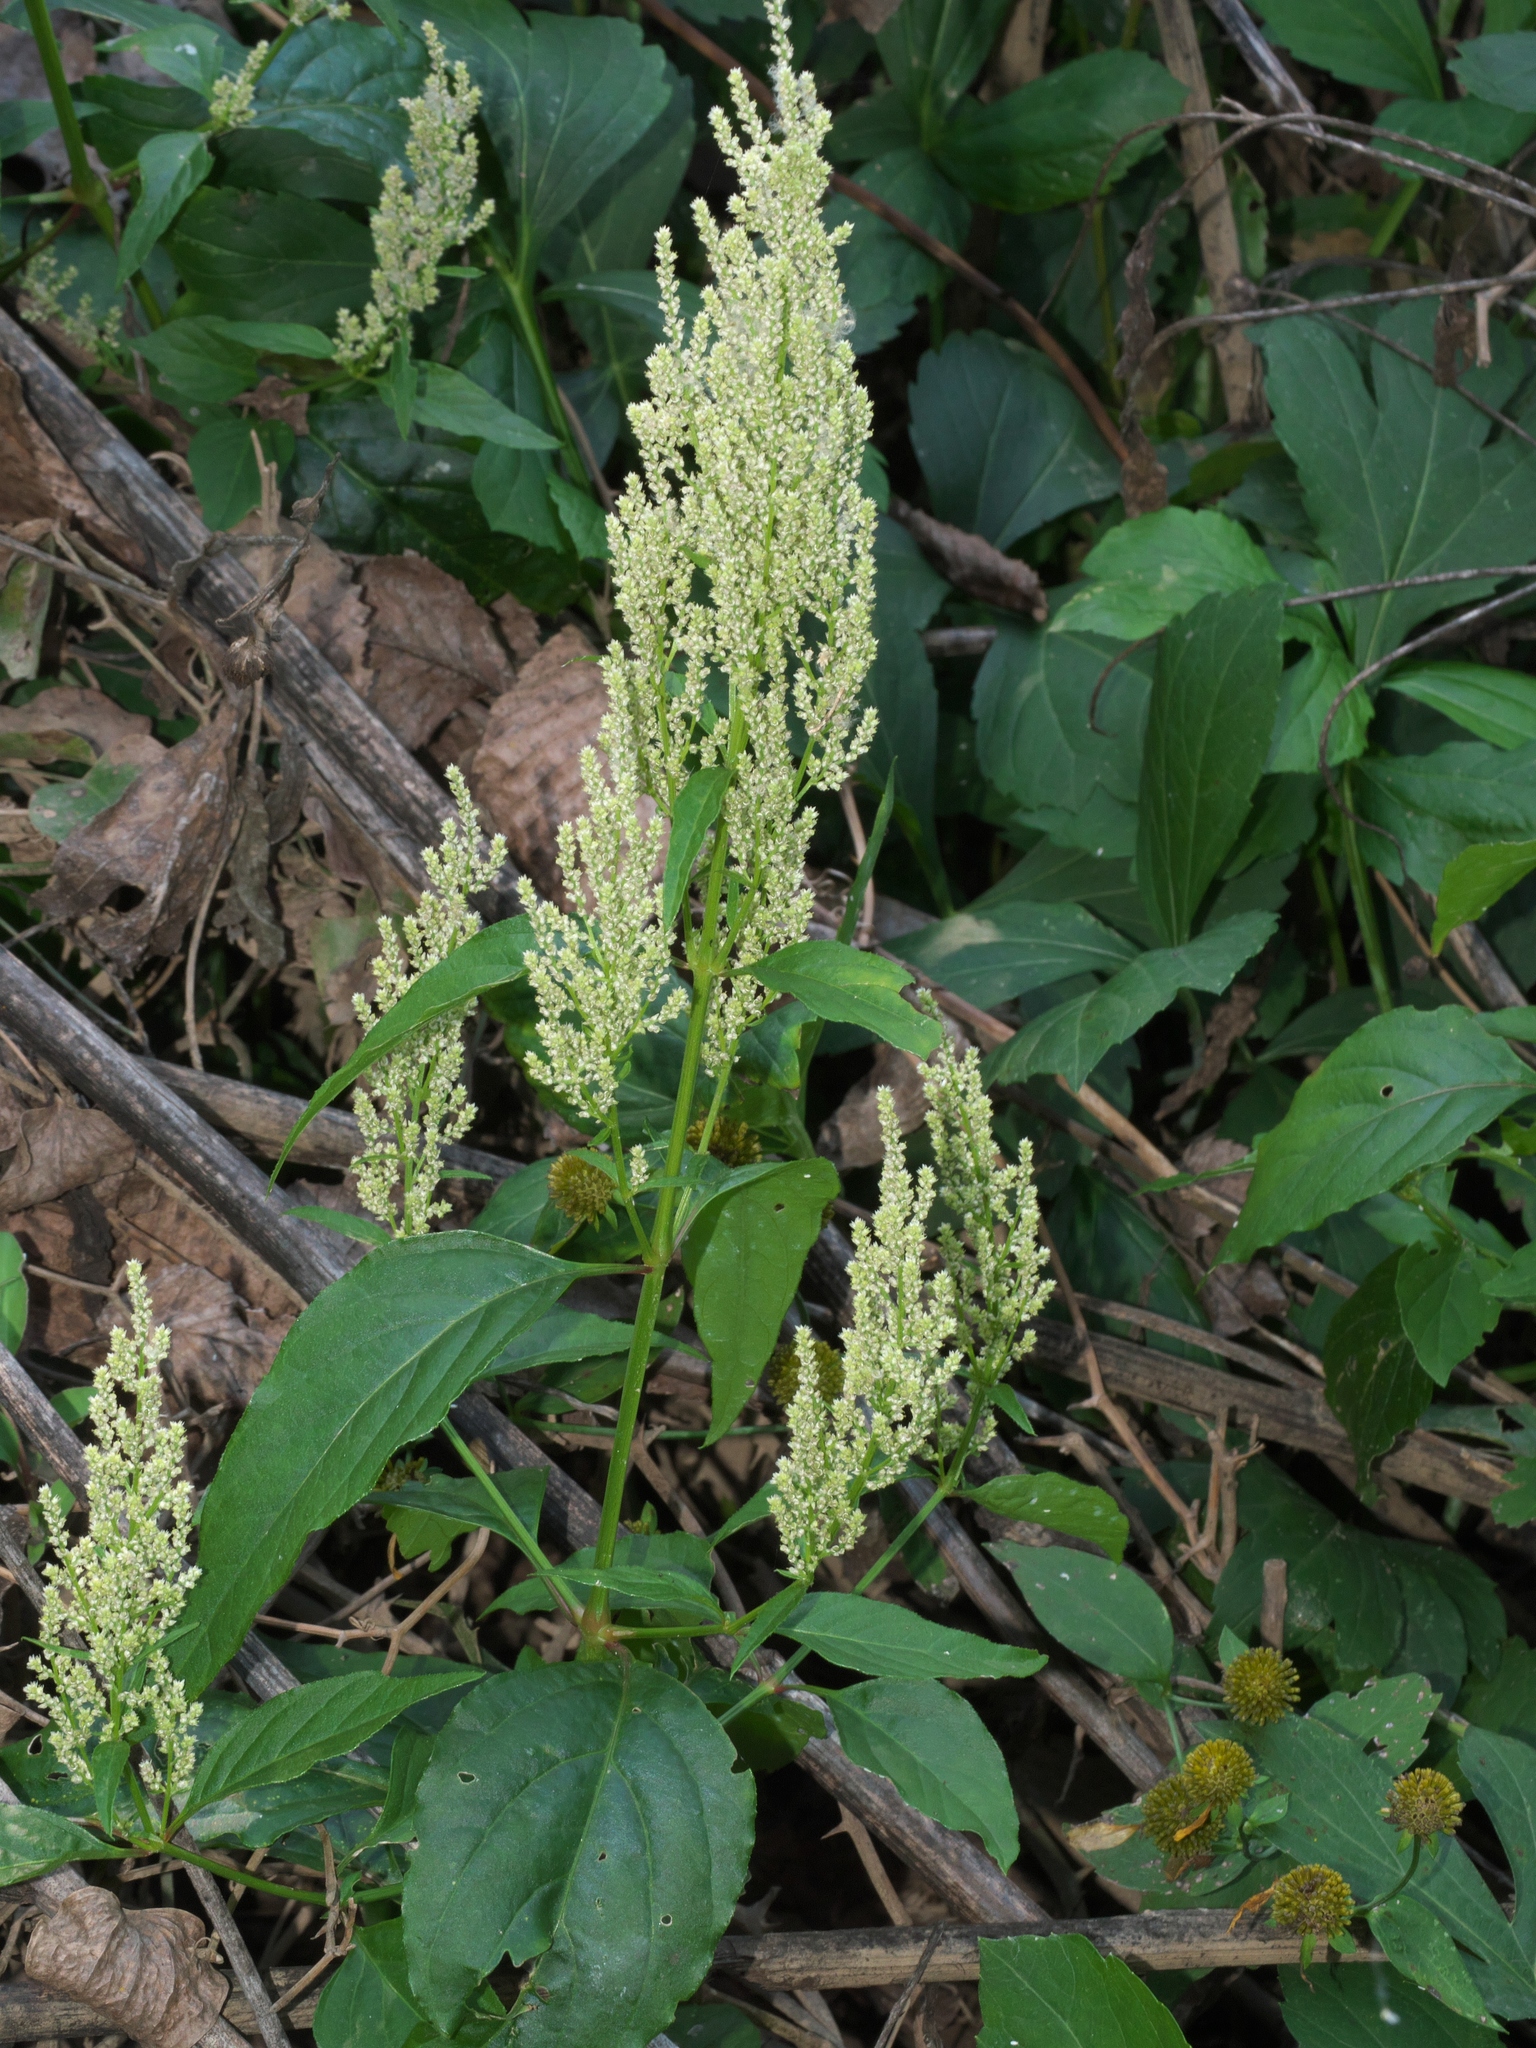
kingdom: Plantae
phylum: Tracheophyta
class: Magnoliopsida
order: Caryophyllales
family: Amaranthaceae
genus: Iresine
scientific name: Iresine rhizomatosa
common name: Juda's-bush
